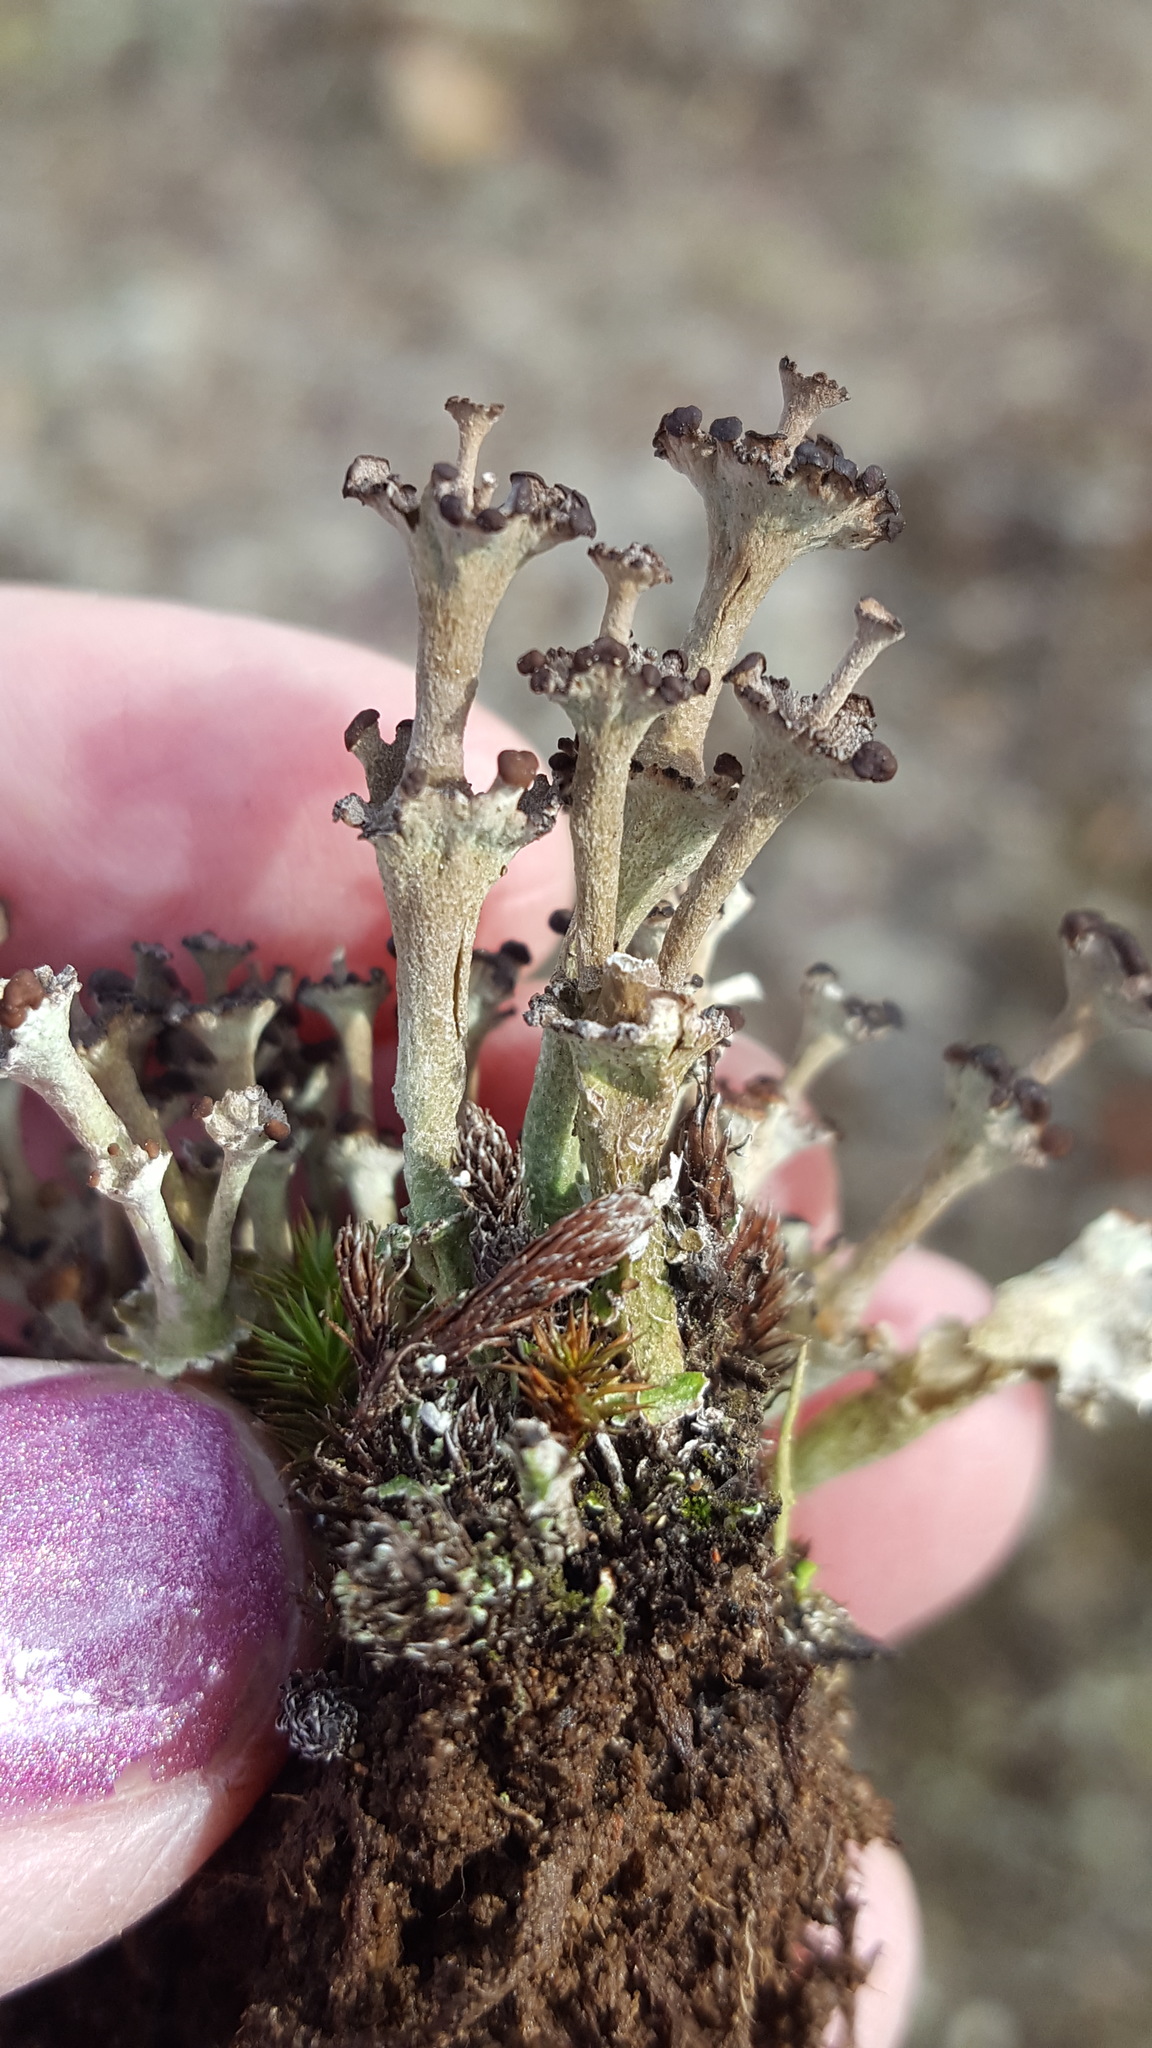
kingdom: Fungi
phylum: Ascomycota
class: Lecanoromycetes
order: Lecanorales
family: Cladoniaceae
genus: Cladonia
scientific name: Cladonia cervicornis
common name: Browned pixie-cup lichen
